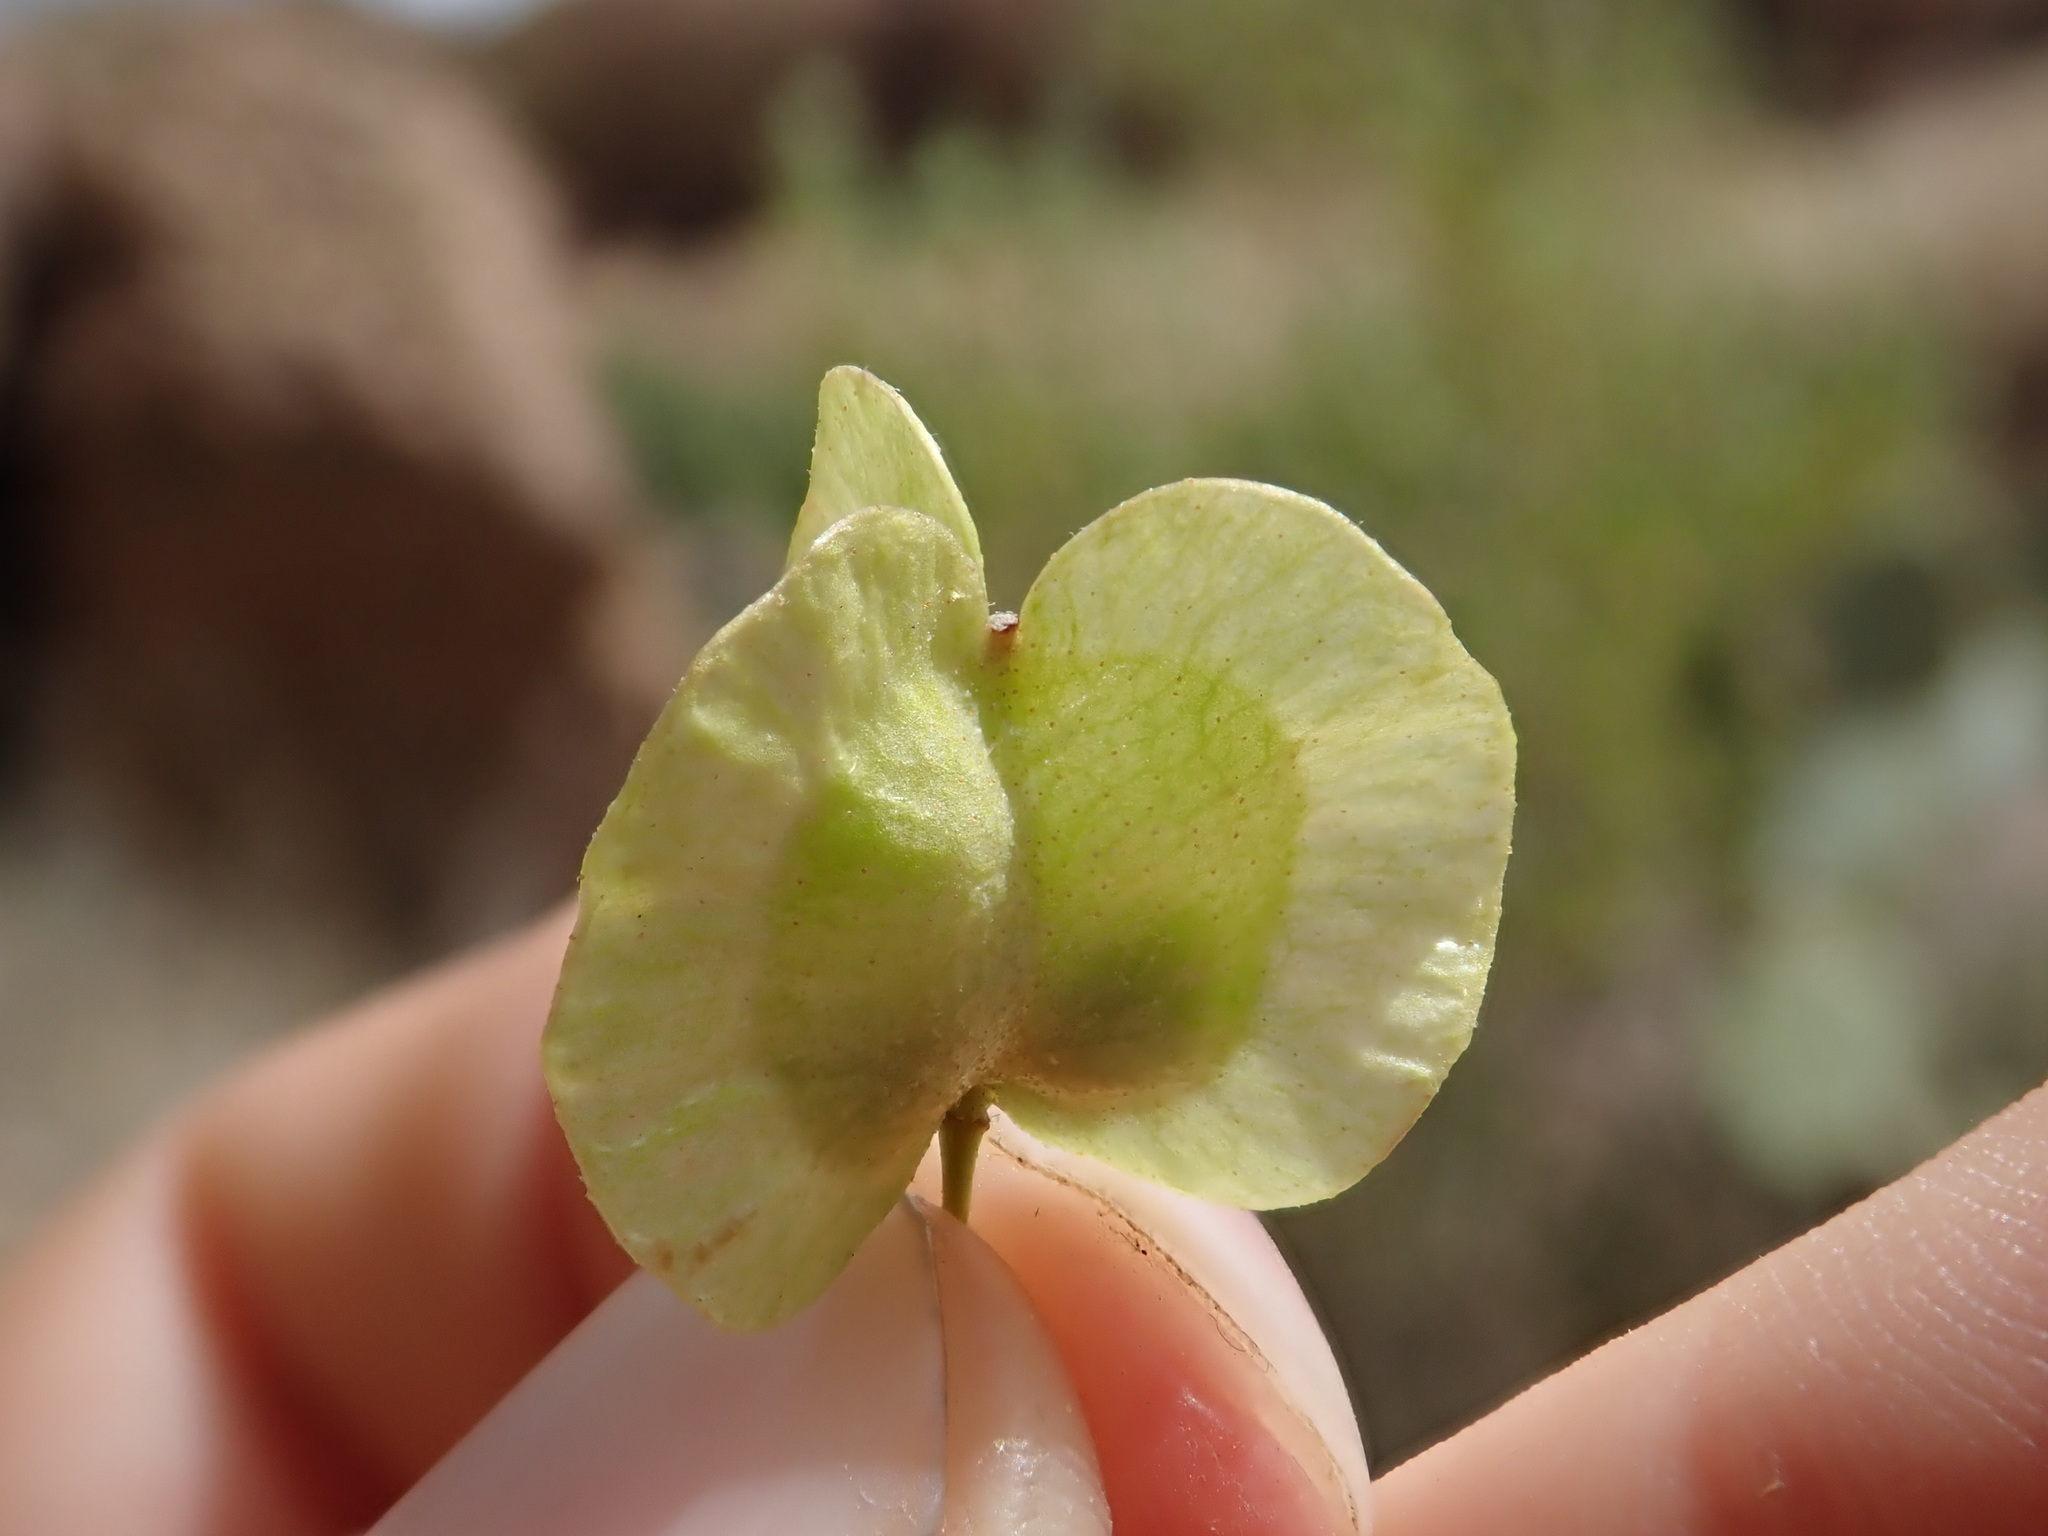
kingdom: Plantae
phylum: Tracheophyta
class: Magnoliopsida
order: Sapindales
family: Sapindaceae
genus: Dodonaea
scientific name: Dodonaea viscosa
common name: Hopbush
